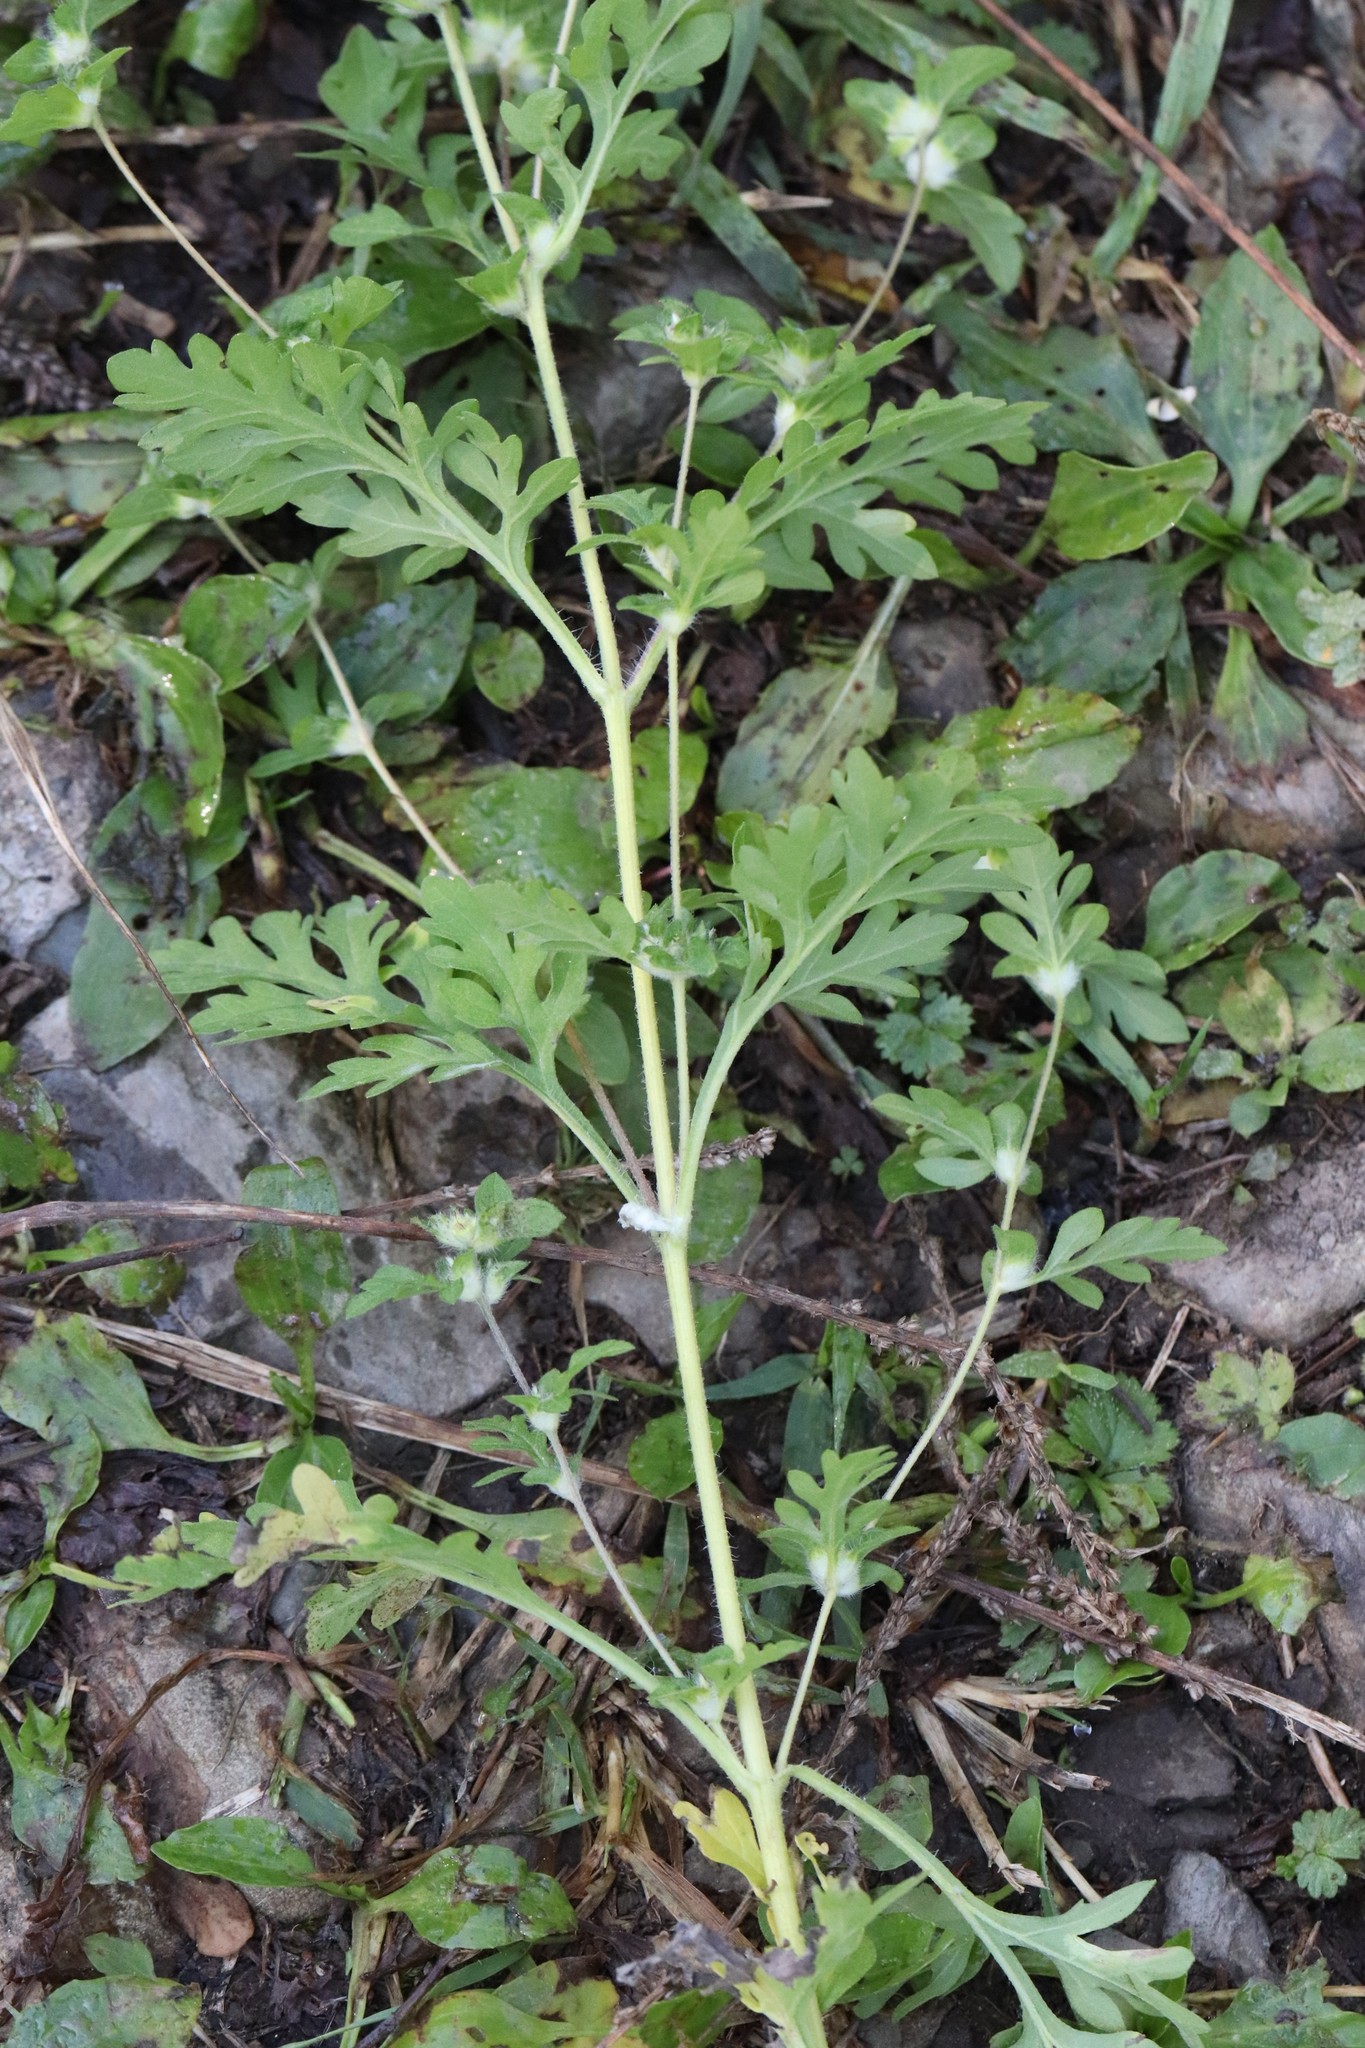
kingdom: Plantae
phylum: Tracheophyta
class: Magnoliopsida
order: Asterales
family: Asteraceae
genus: Ambrosia
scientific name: Ambrosia artemisiifolia
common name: Annual ragweed
